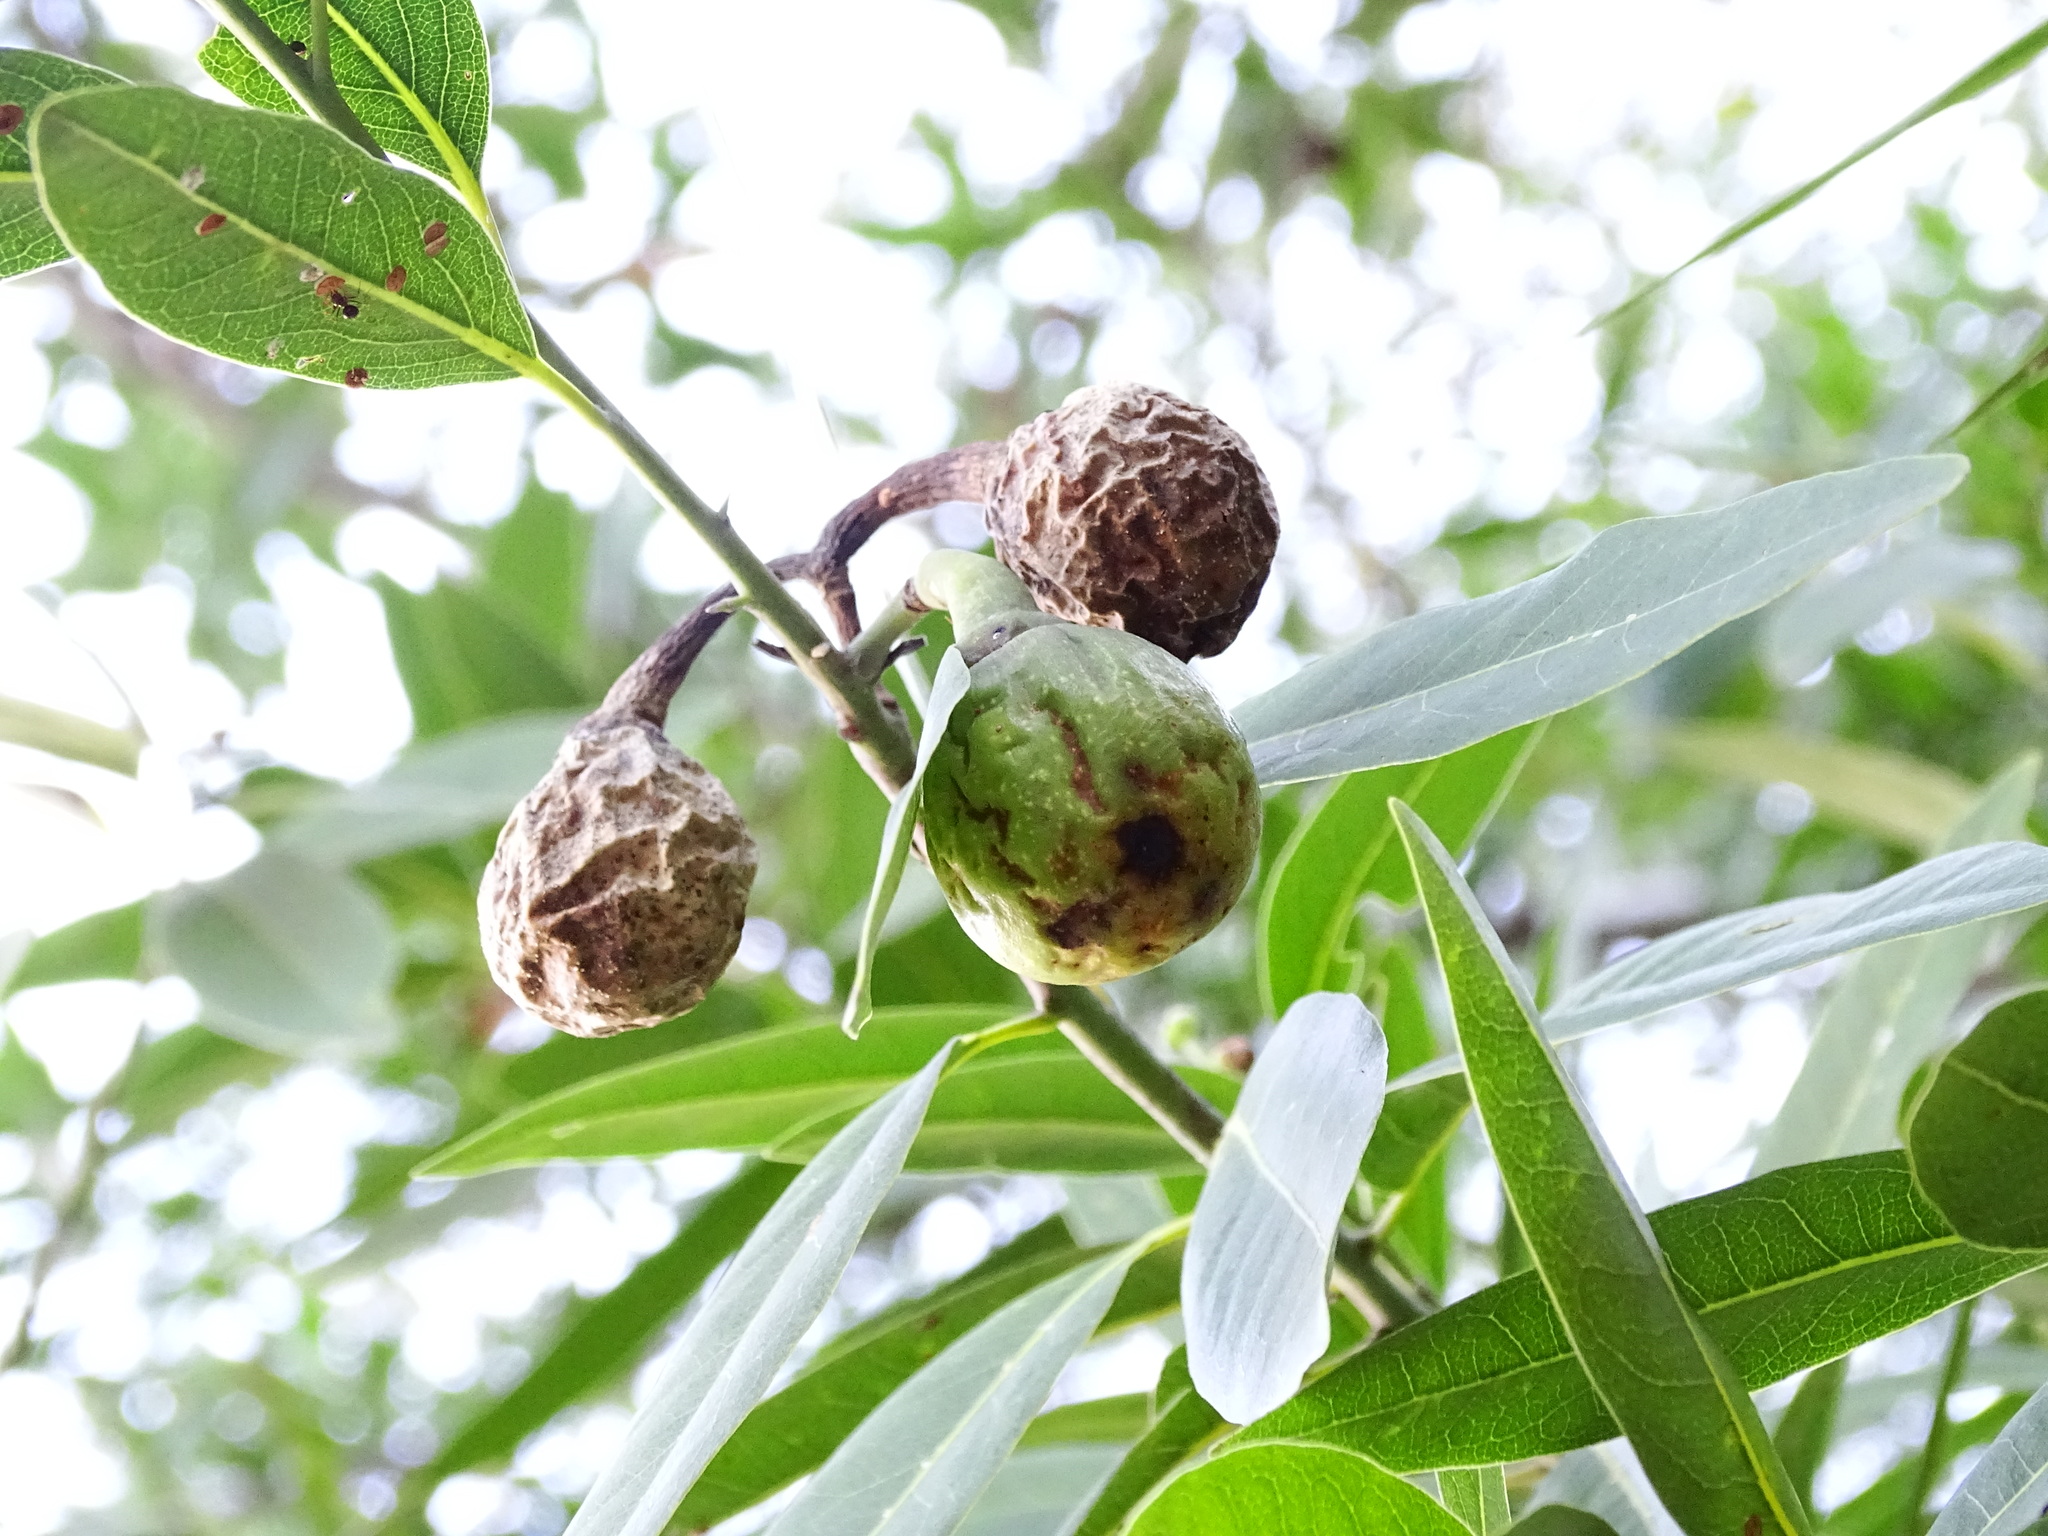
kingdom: Plantae
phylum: Tracheophyta
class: Magnoliopsida
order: Laurales
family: Lauraceae
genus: Umbellularia
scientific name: Umbellularia californica
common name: California bay
